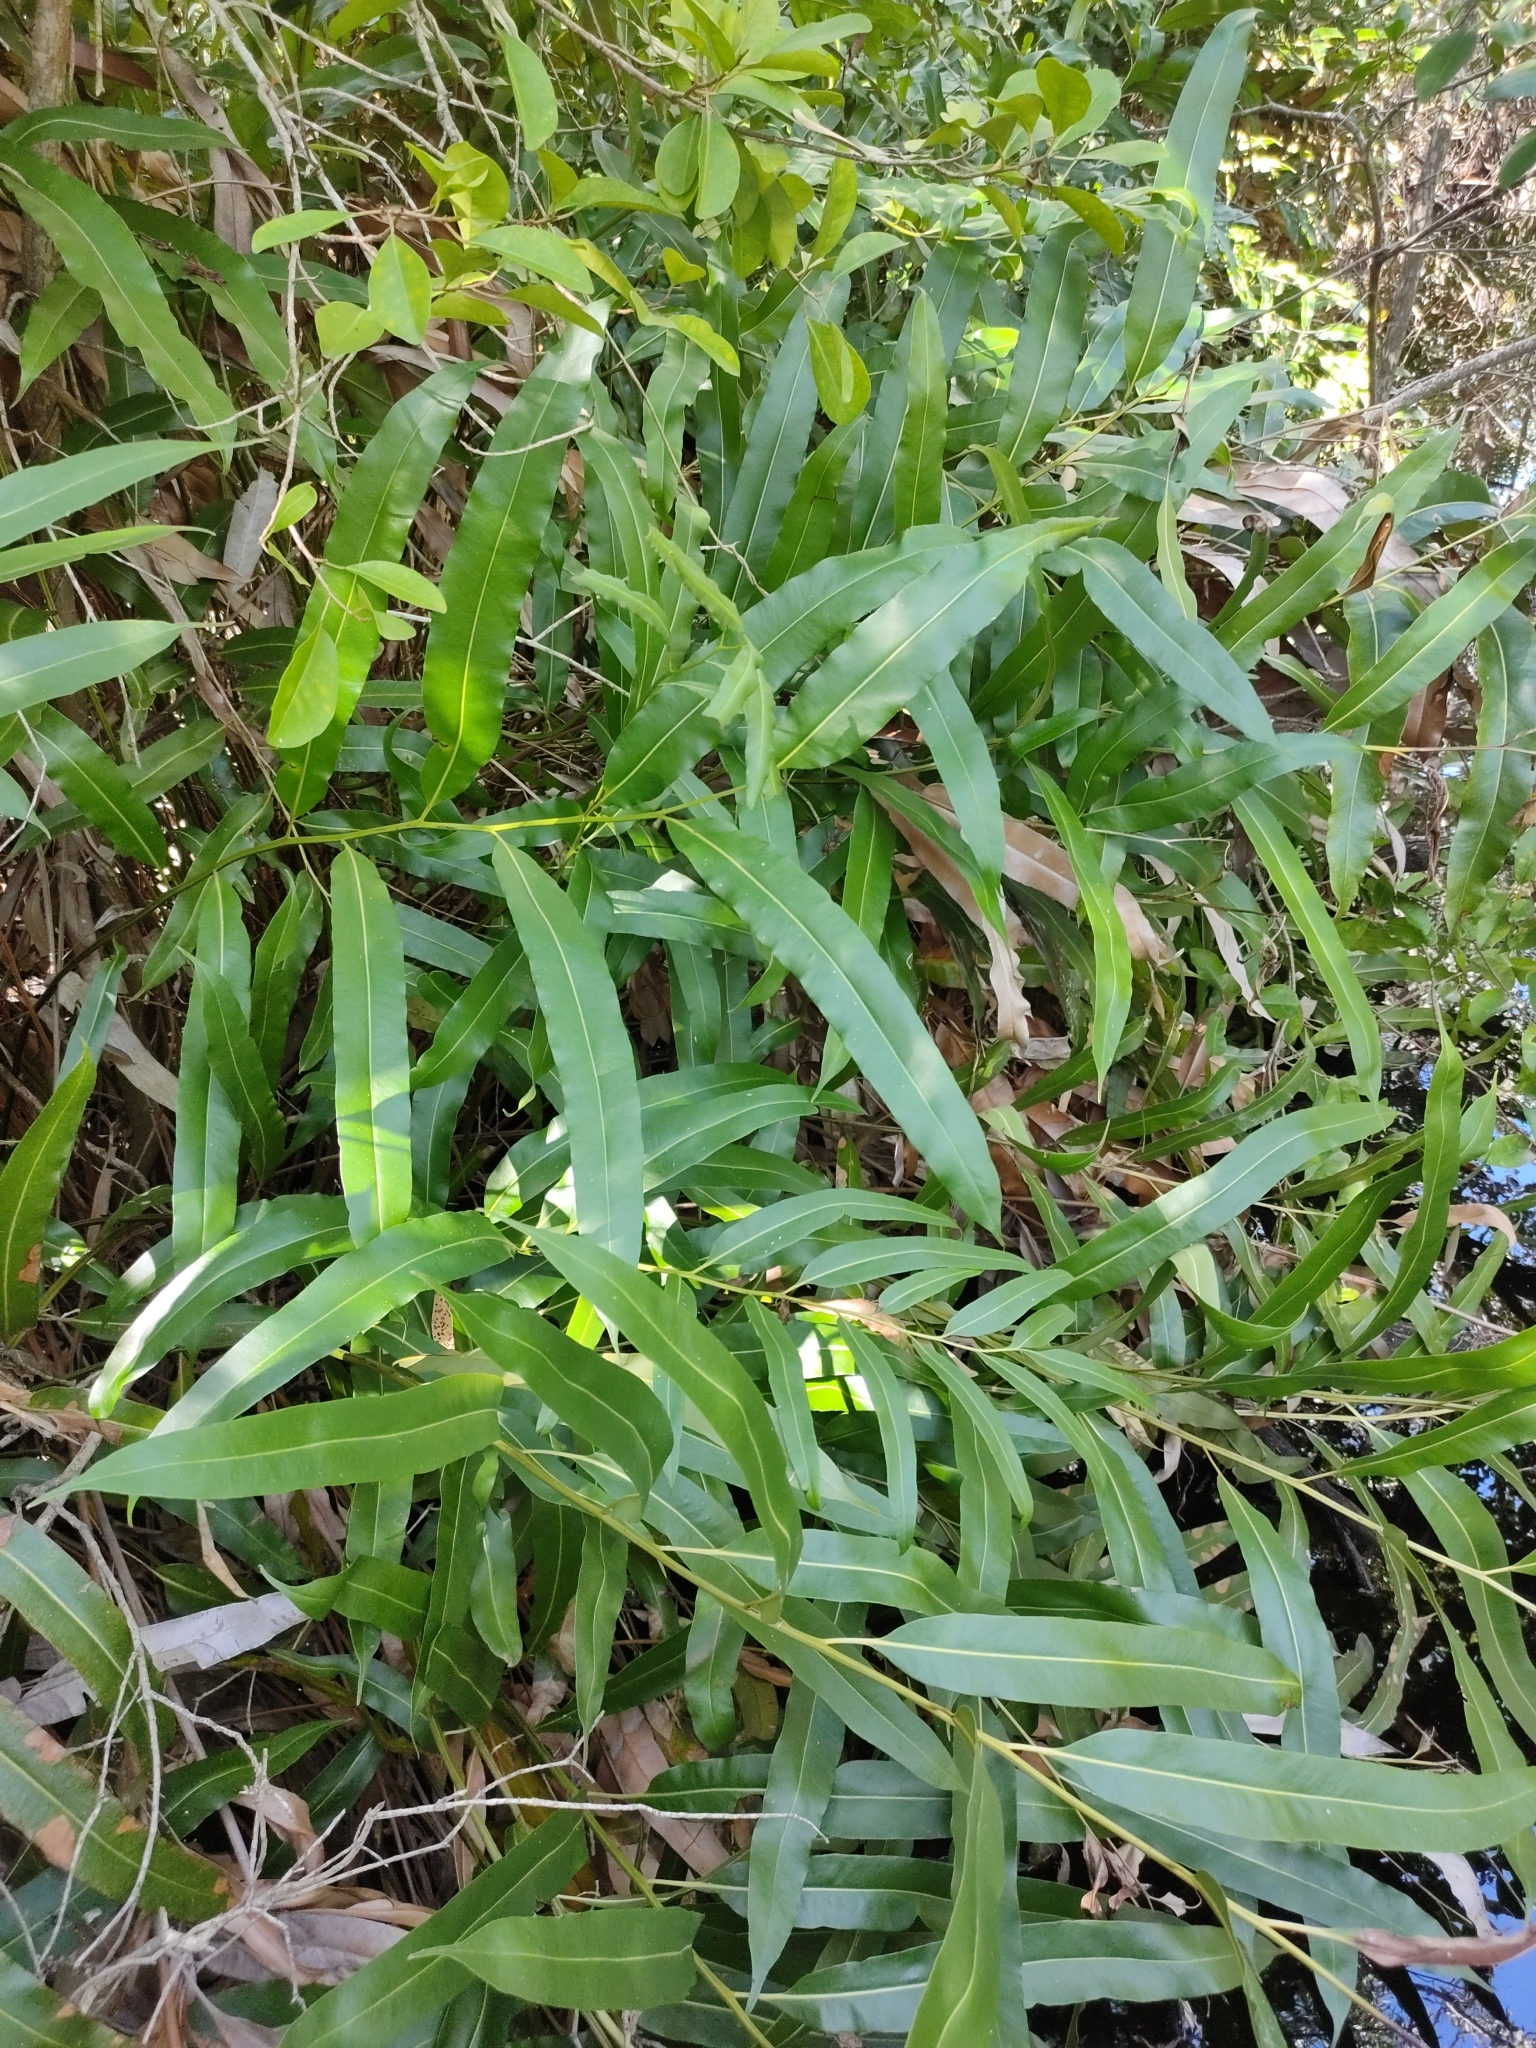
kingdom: Plantae
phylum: Tracheophyta
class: Polypodiopsida
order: Polypodiales
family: Pteridaceae
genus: Acrostichum
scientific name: Acrostichum speciosum
